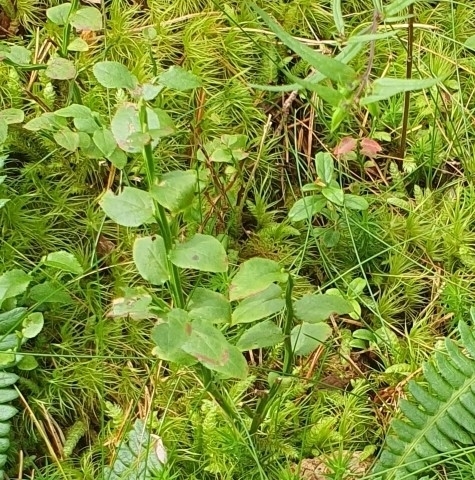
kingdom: Plantae
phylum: Tracheophyta
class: Magnoliopsida
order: Ericales
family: Ericaceae
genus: Vaccinium
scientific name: Vaccinium myrtillus
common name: Bilberry
